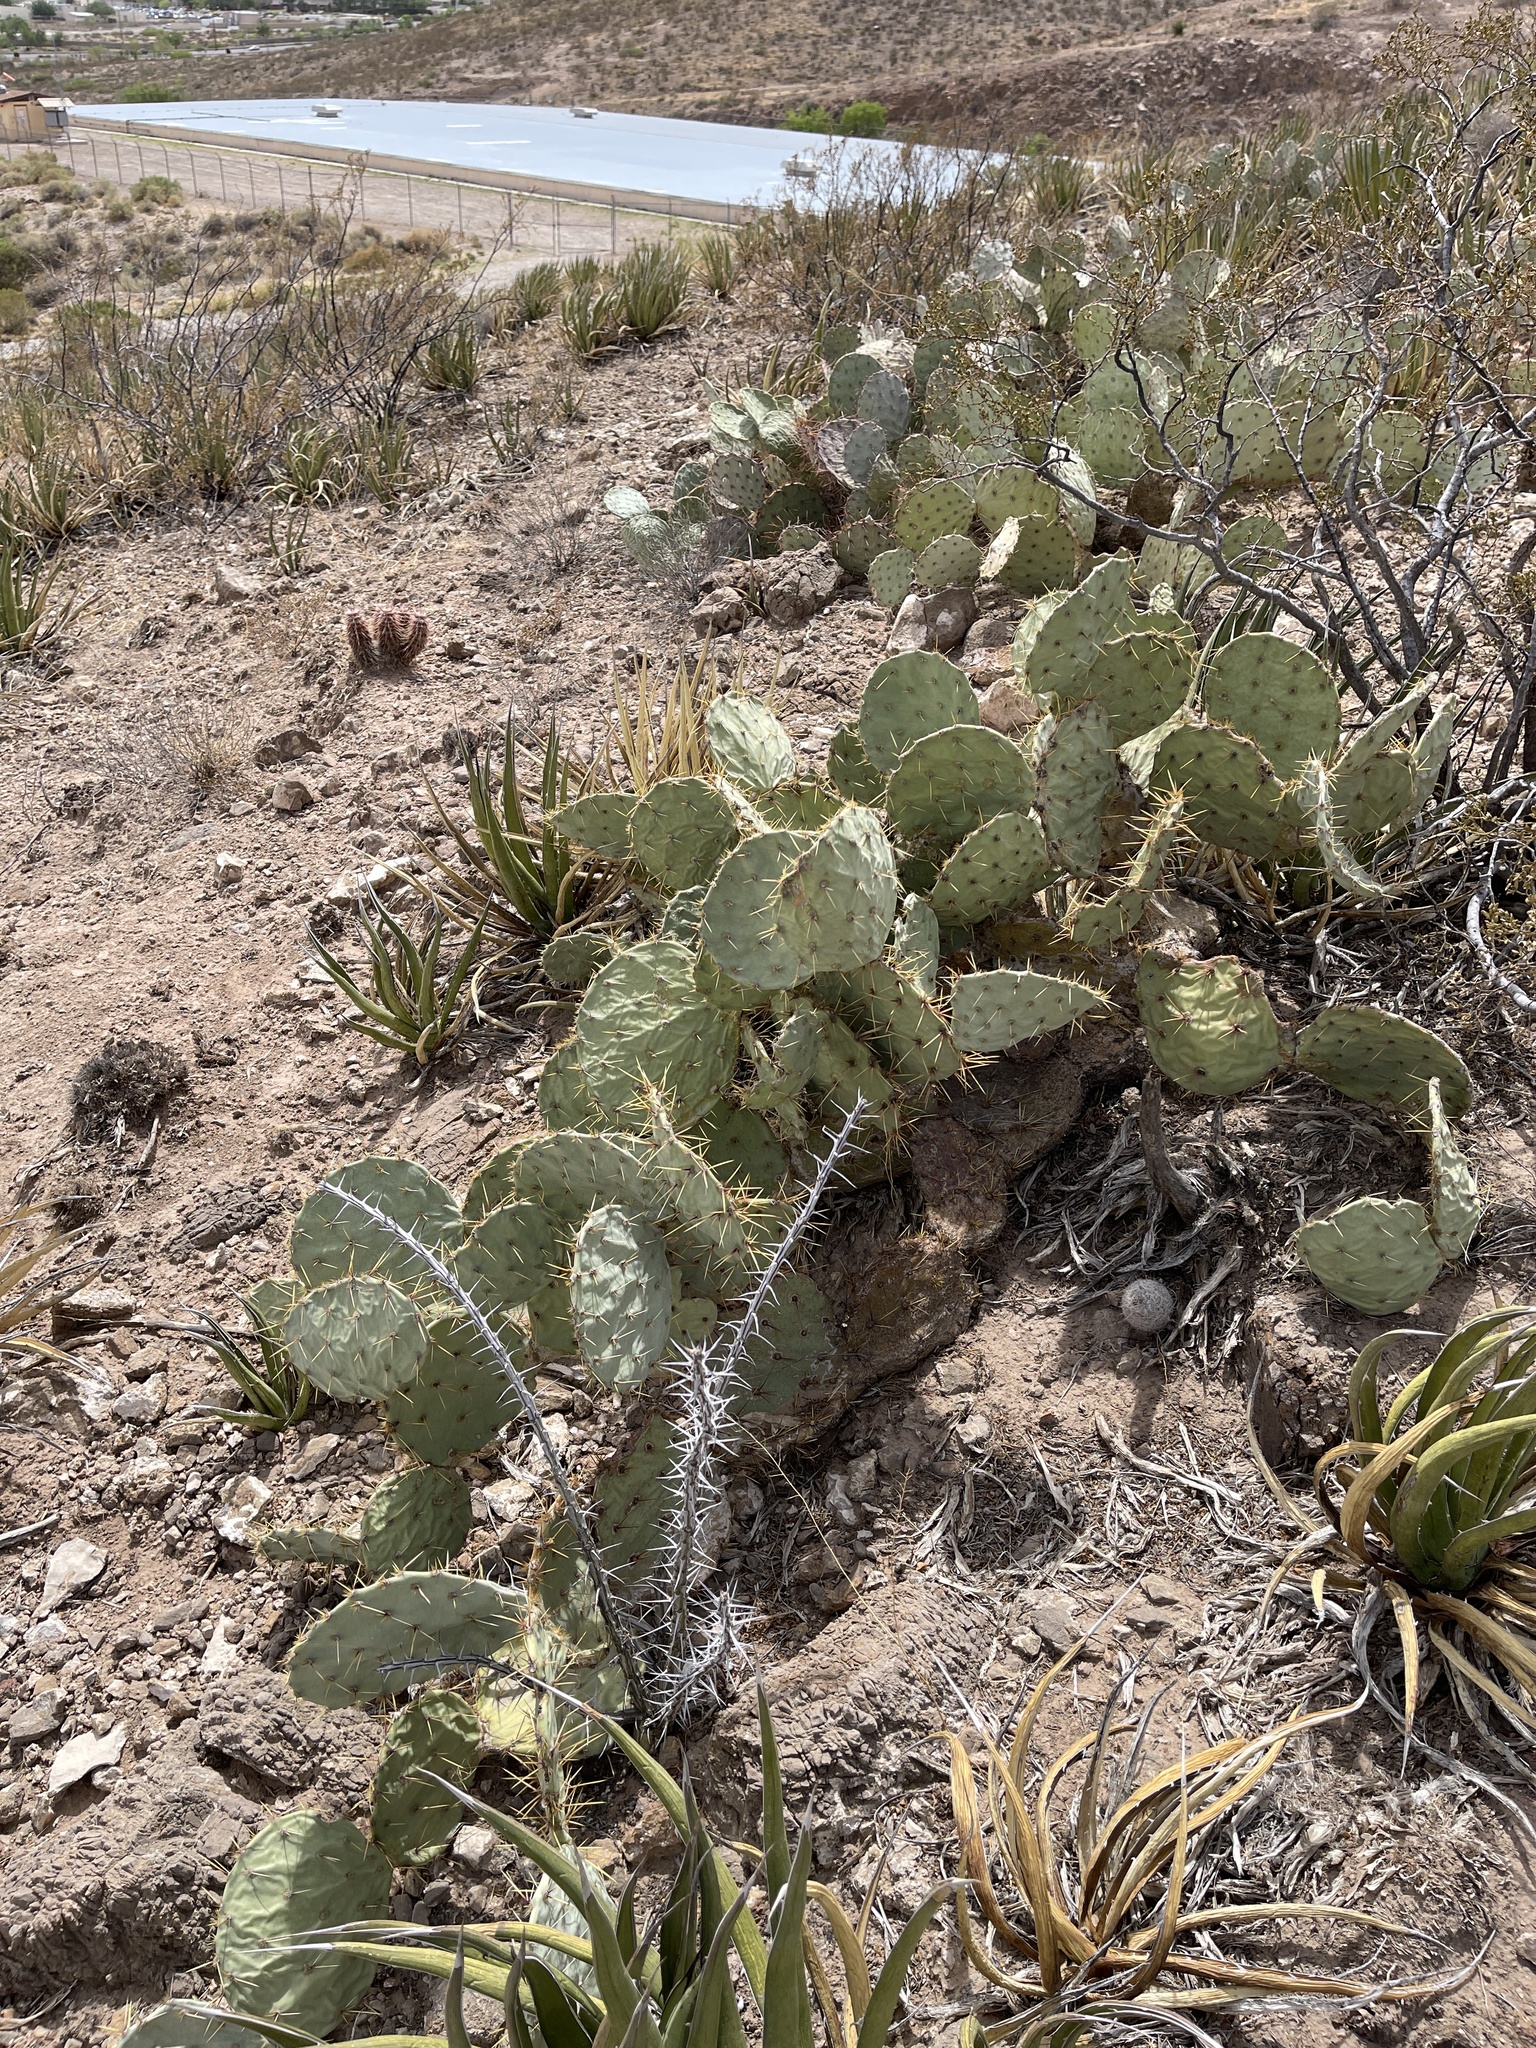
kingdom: Plantae
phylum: Tracheophyta
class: Magnoliopsida
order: Caryophyllales
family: Cactaceae
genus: Opuntia
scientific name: Opuntia engelmannii
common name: Cactus-apple
